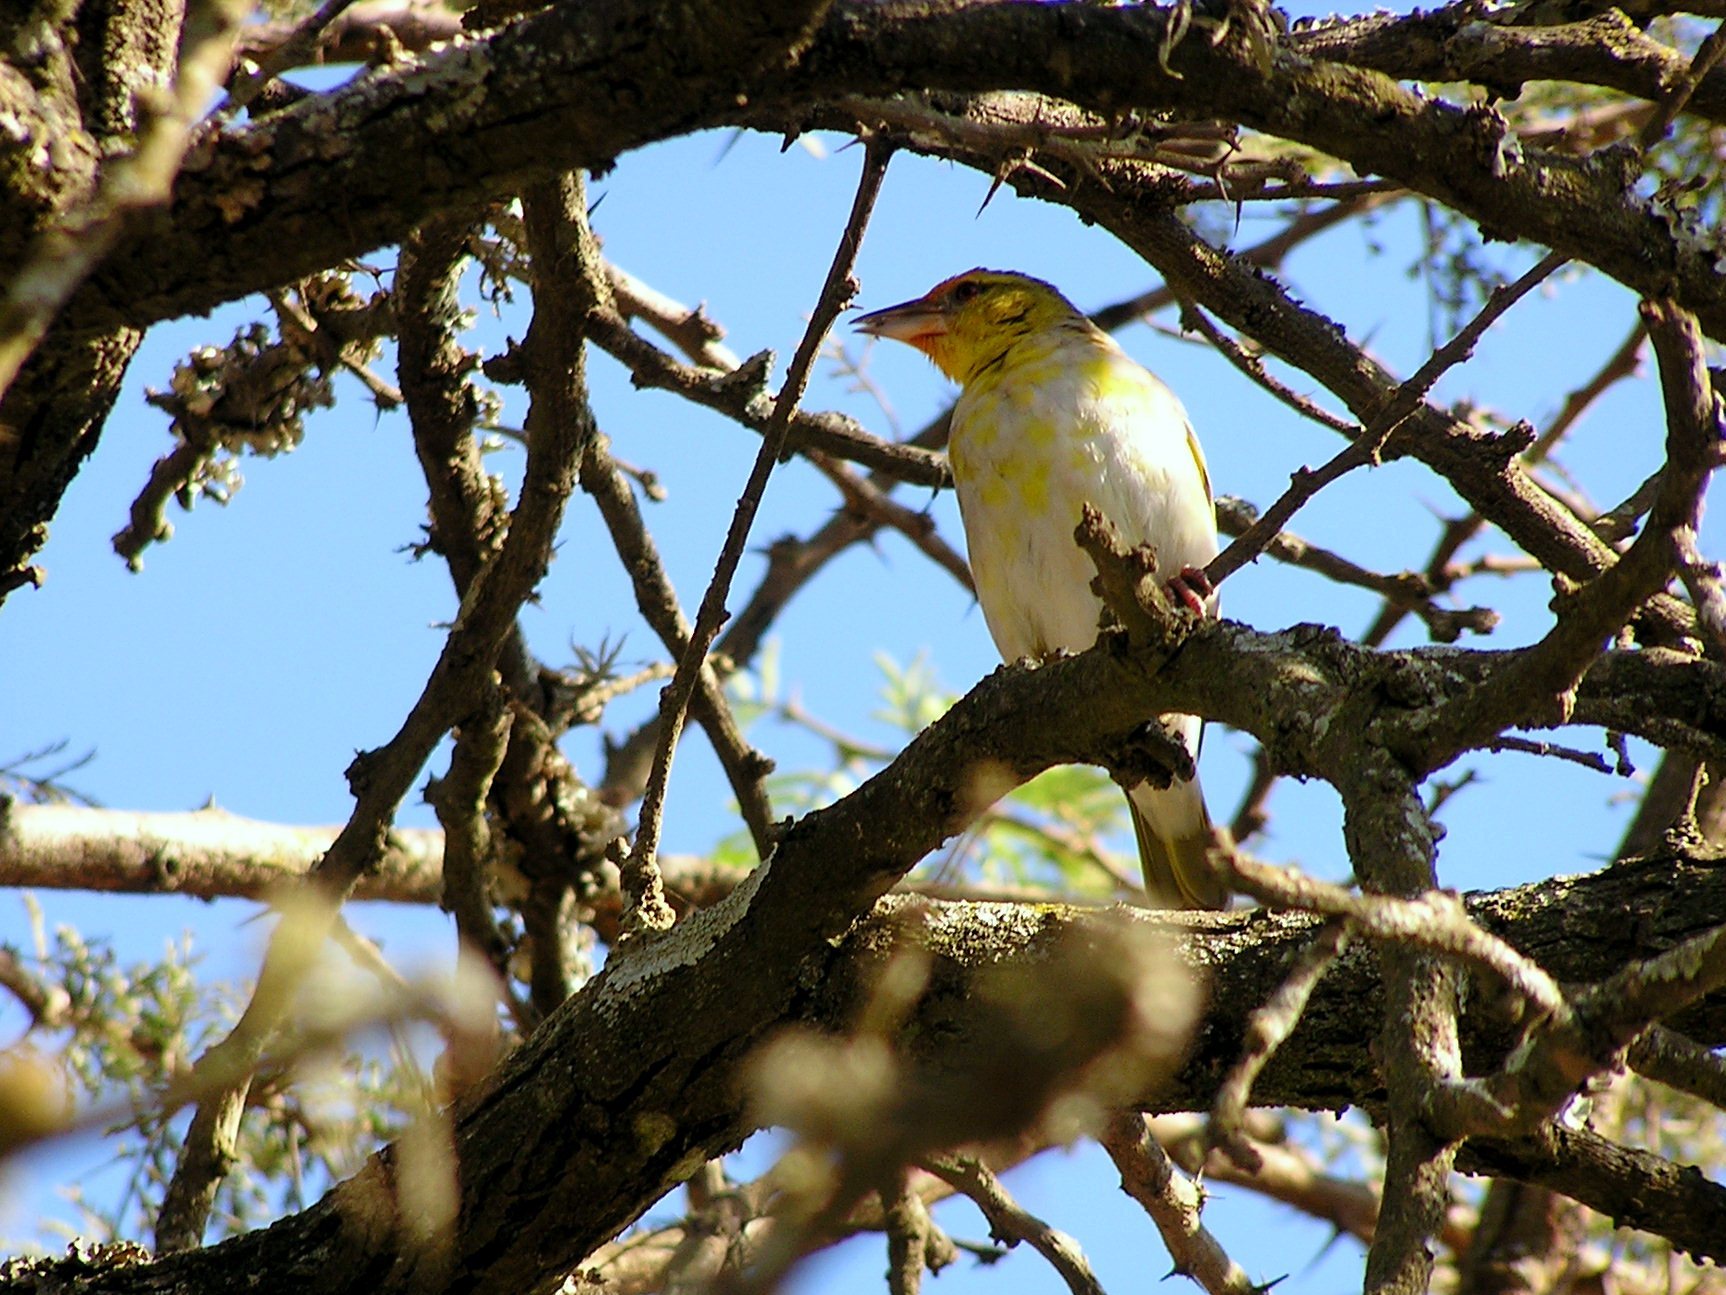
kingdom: Animalia
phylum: Chordata
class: Aves
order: Passeriformes
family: Ploceidae
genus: Ploceus
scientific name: Ploceus cucullatus
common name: Village weaver
